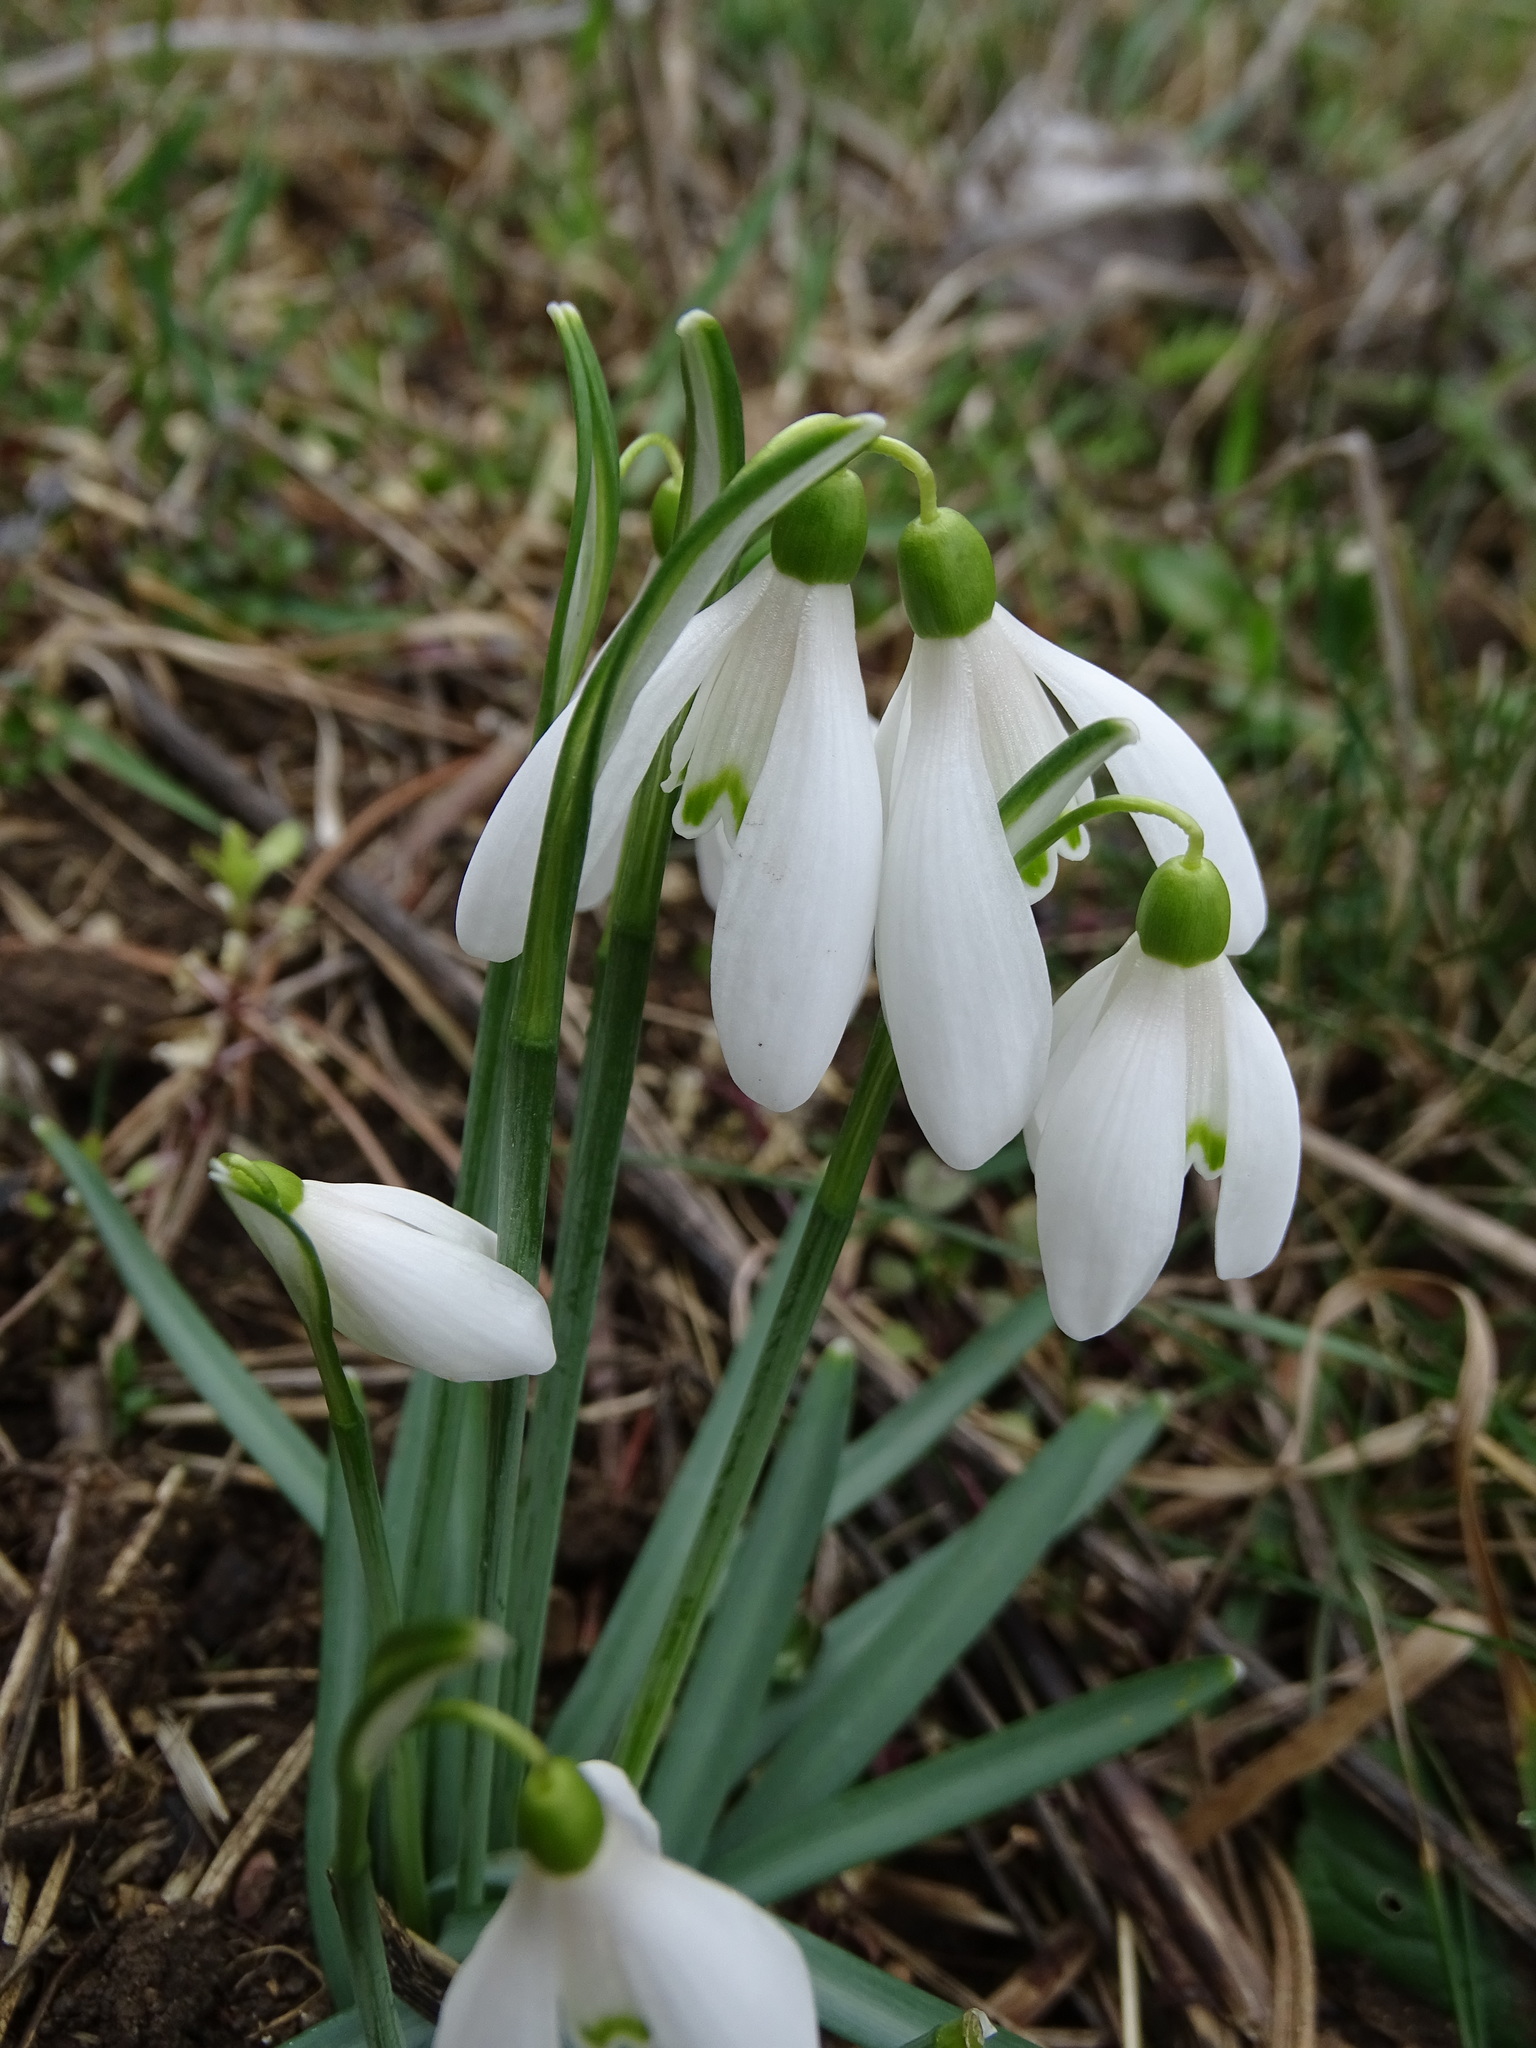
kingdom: Plantae
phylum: Tracheophyta
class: Liliopsida
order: Asparagales
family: Amaryllidaceae
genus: Galanthus
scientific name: Galanthus nivalis
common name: Snowdrop
